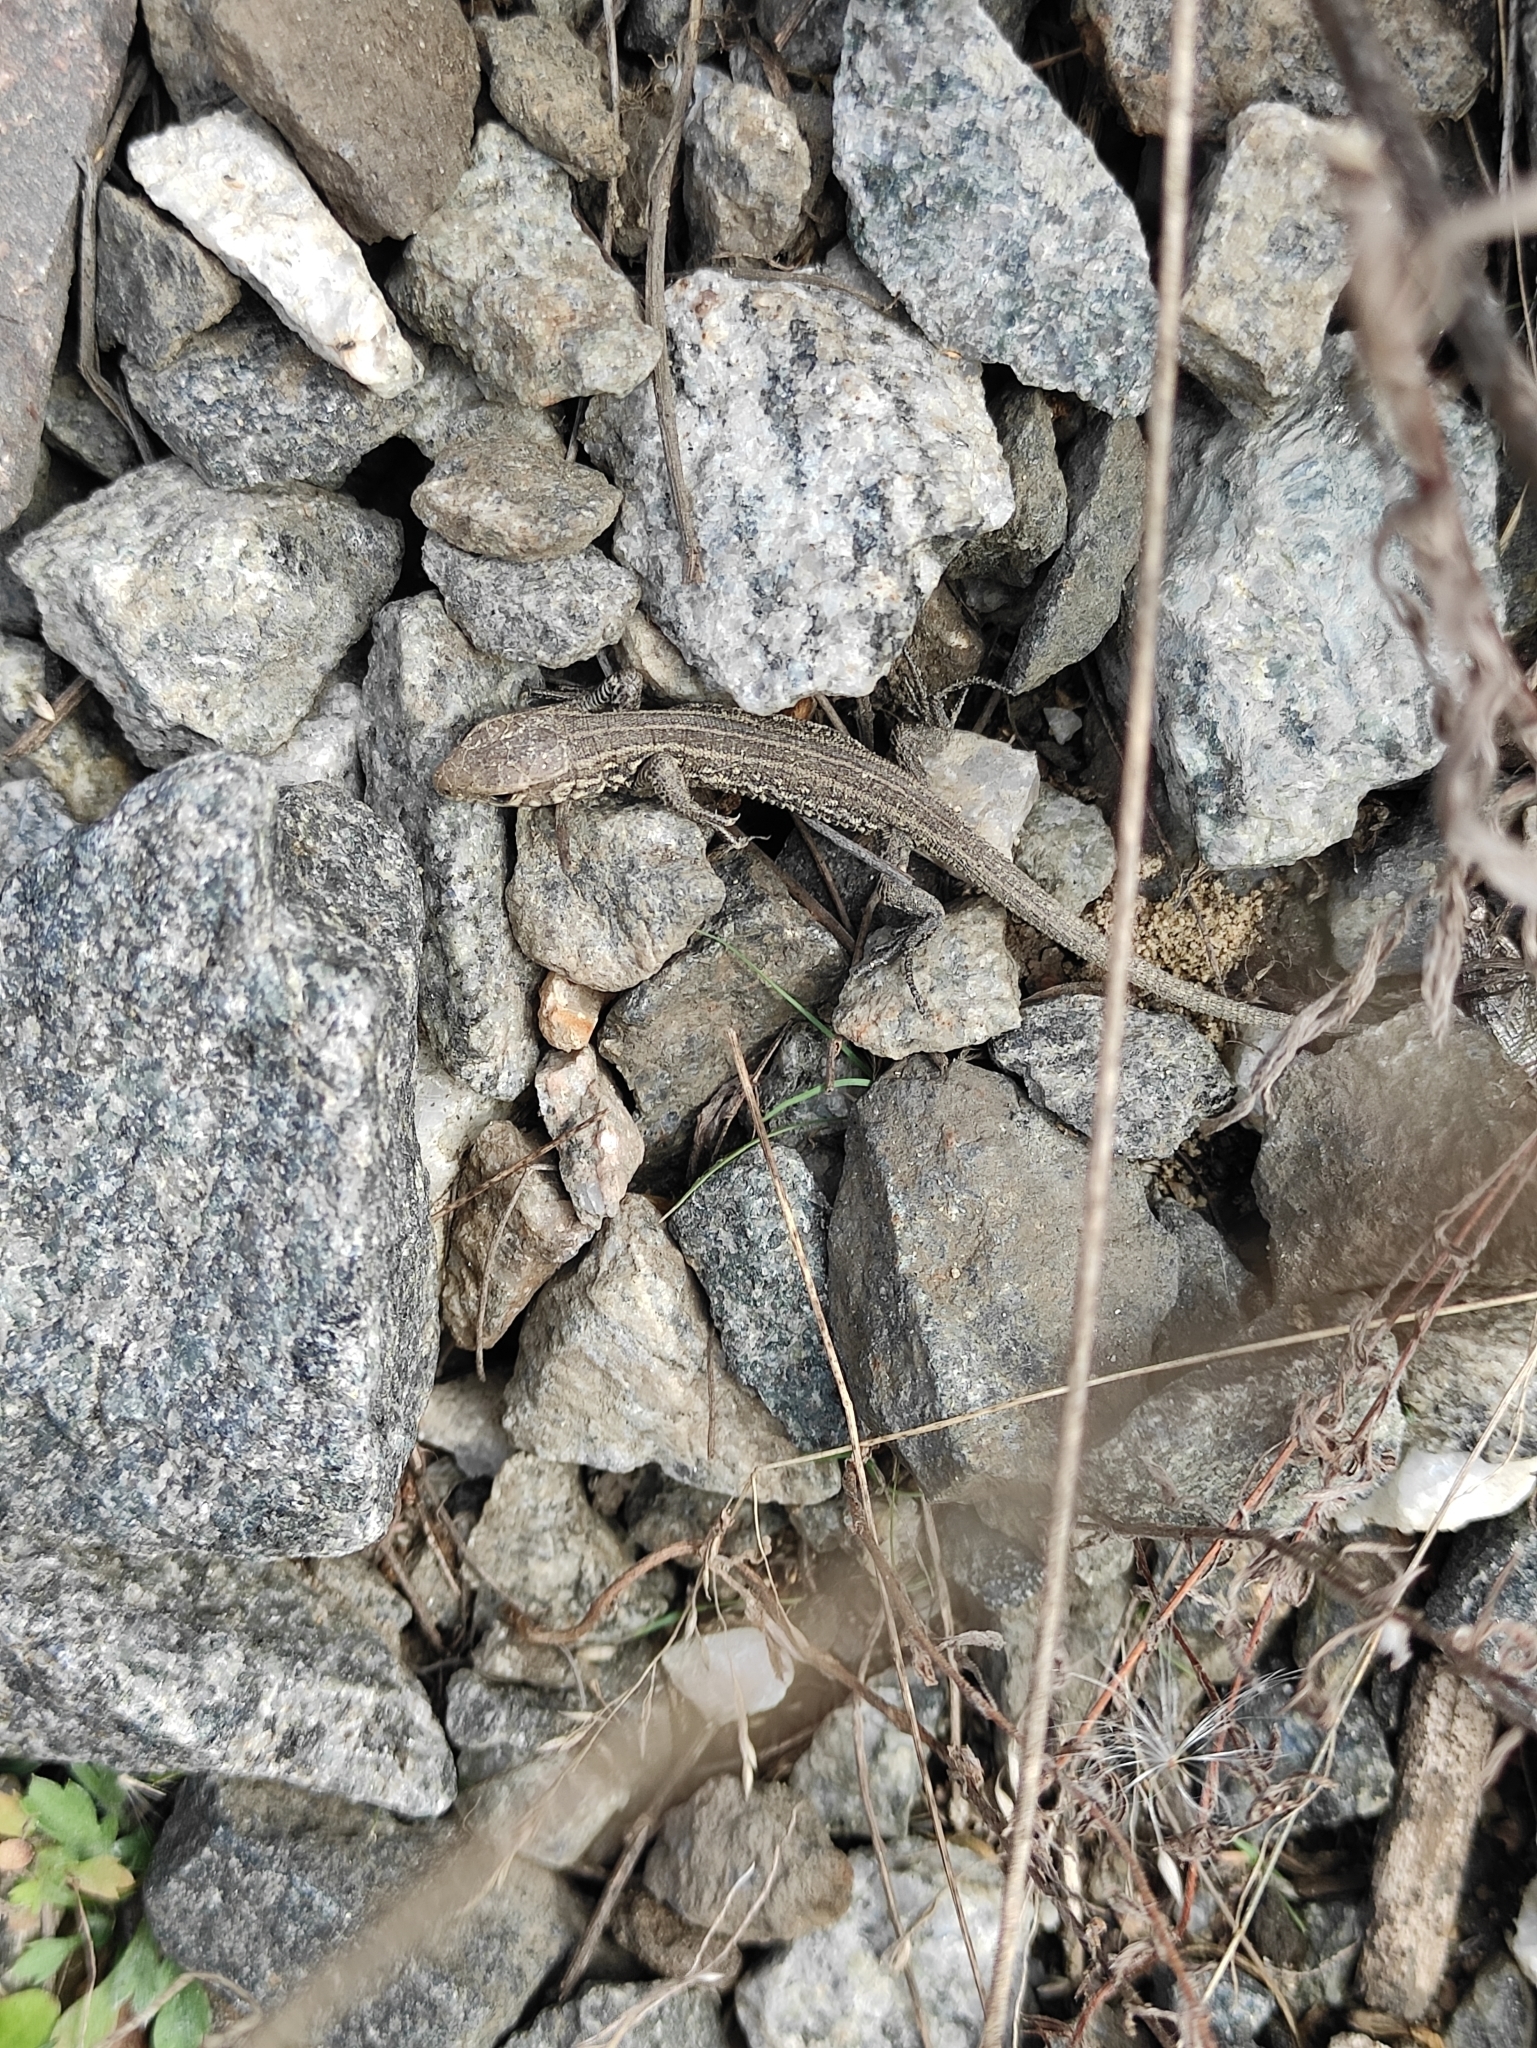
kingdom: Animalia
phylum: Chordata
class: Squamata
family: Lacertidae
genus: Lacerta
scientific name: Lacerta agilis
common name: Sand lizard
